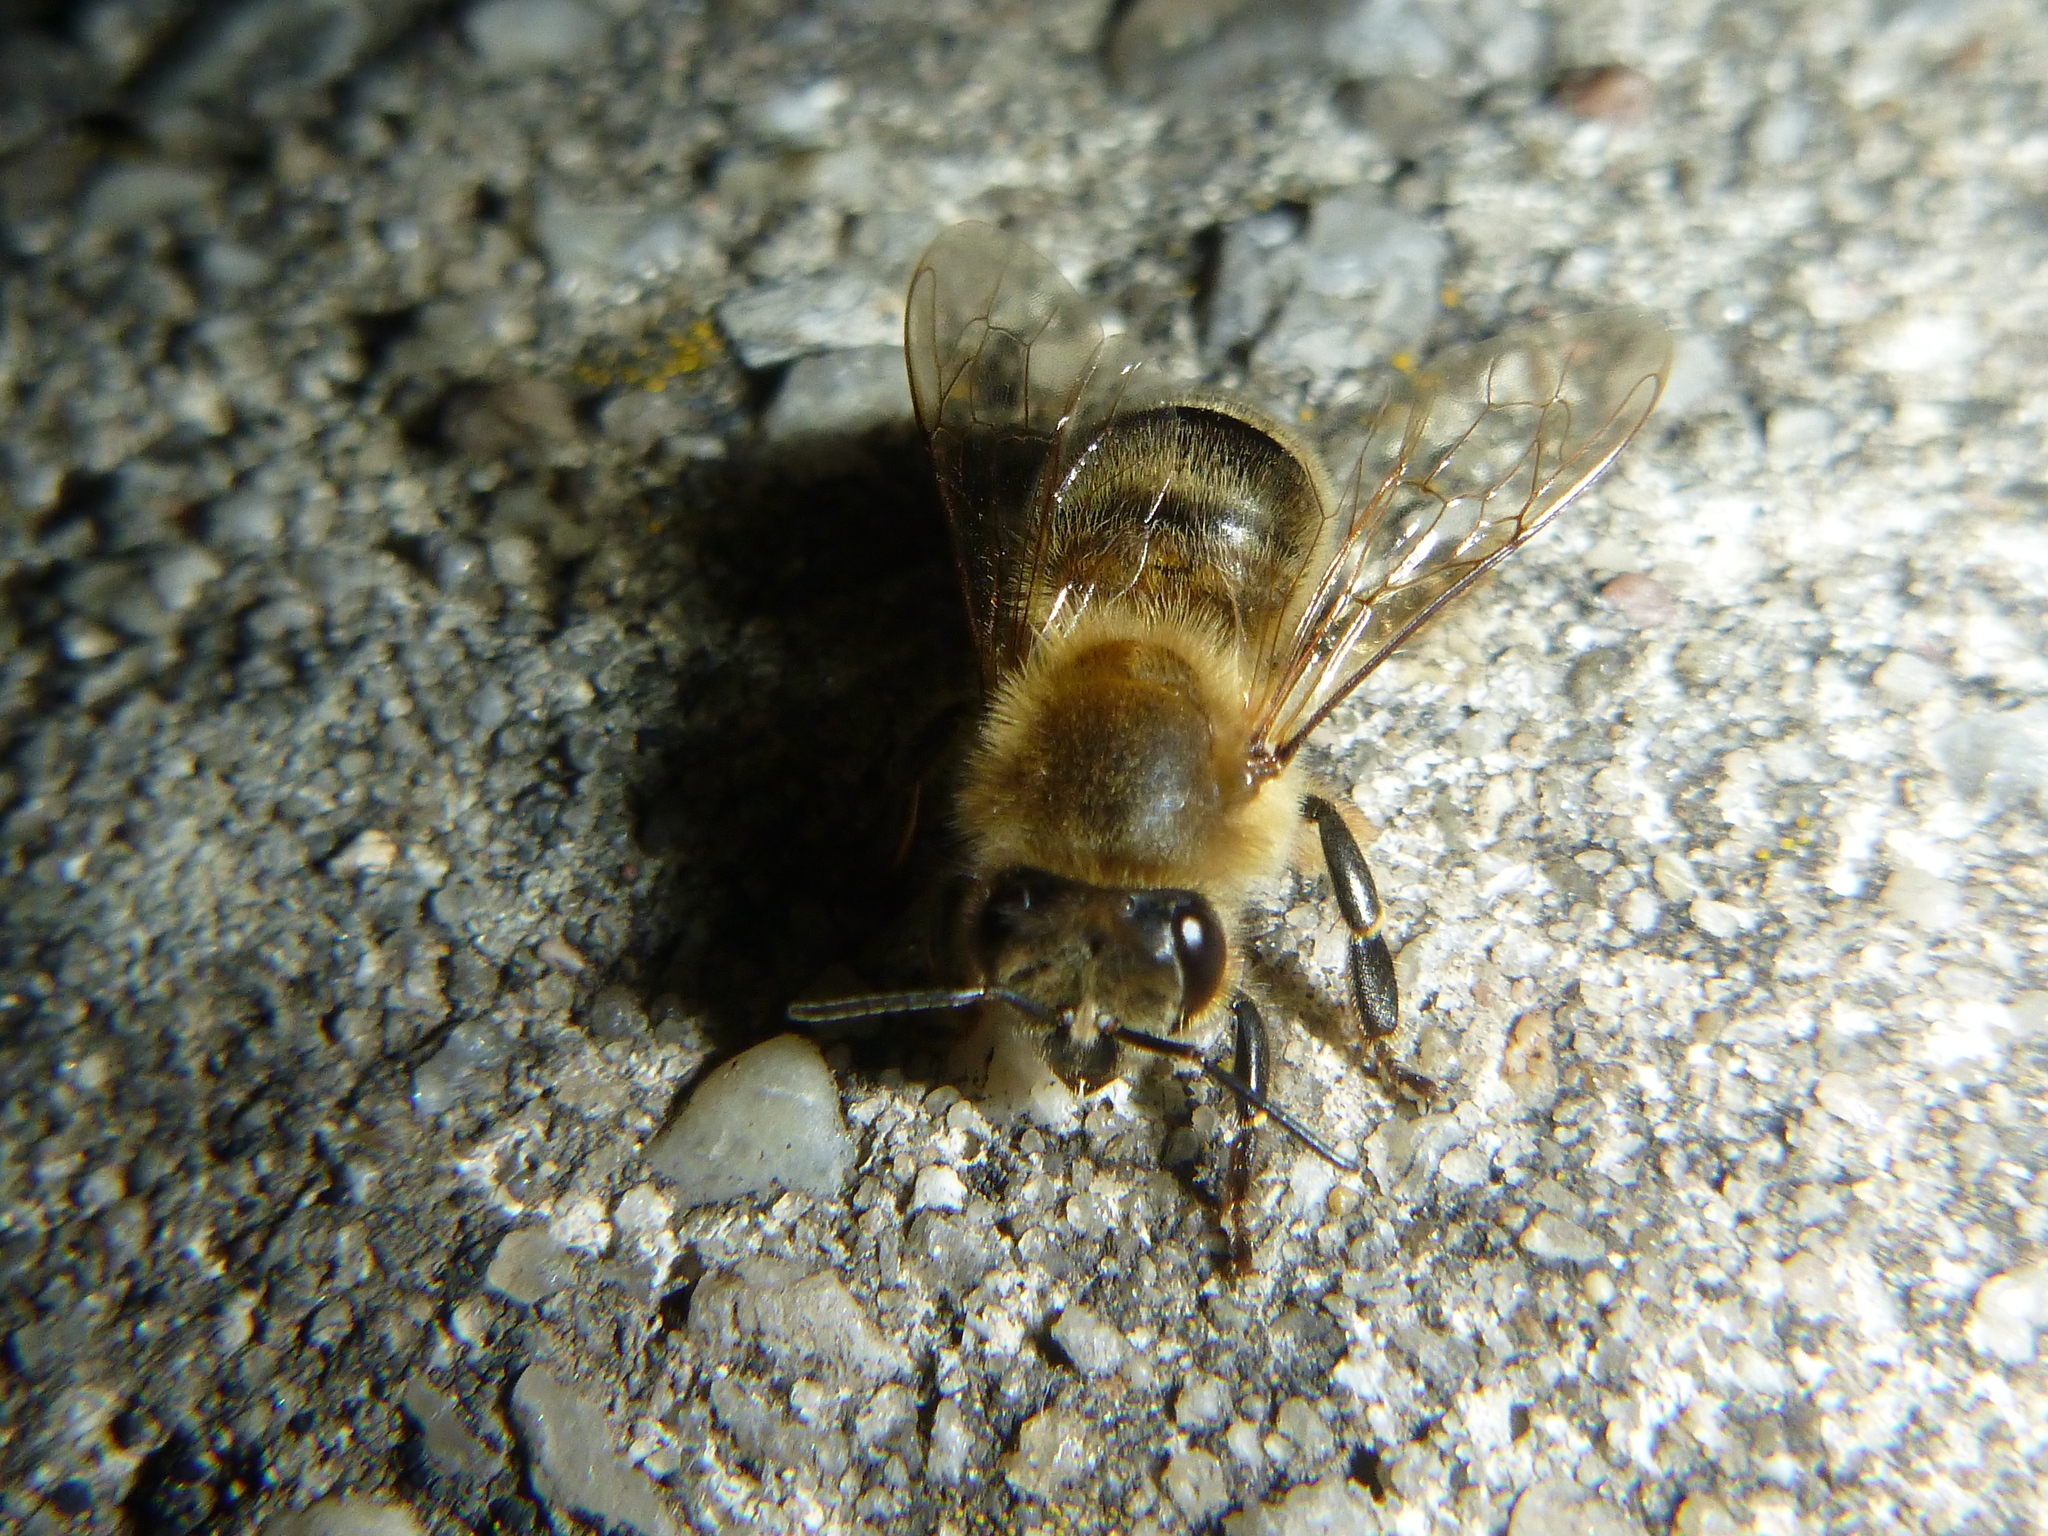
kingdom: Animalia
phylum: Arthropoda
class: Insecta
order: Hymenoptera
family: Apidae
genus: Apis
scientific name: Apis mellifera
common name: Honey bee
